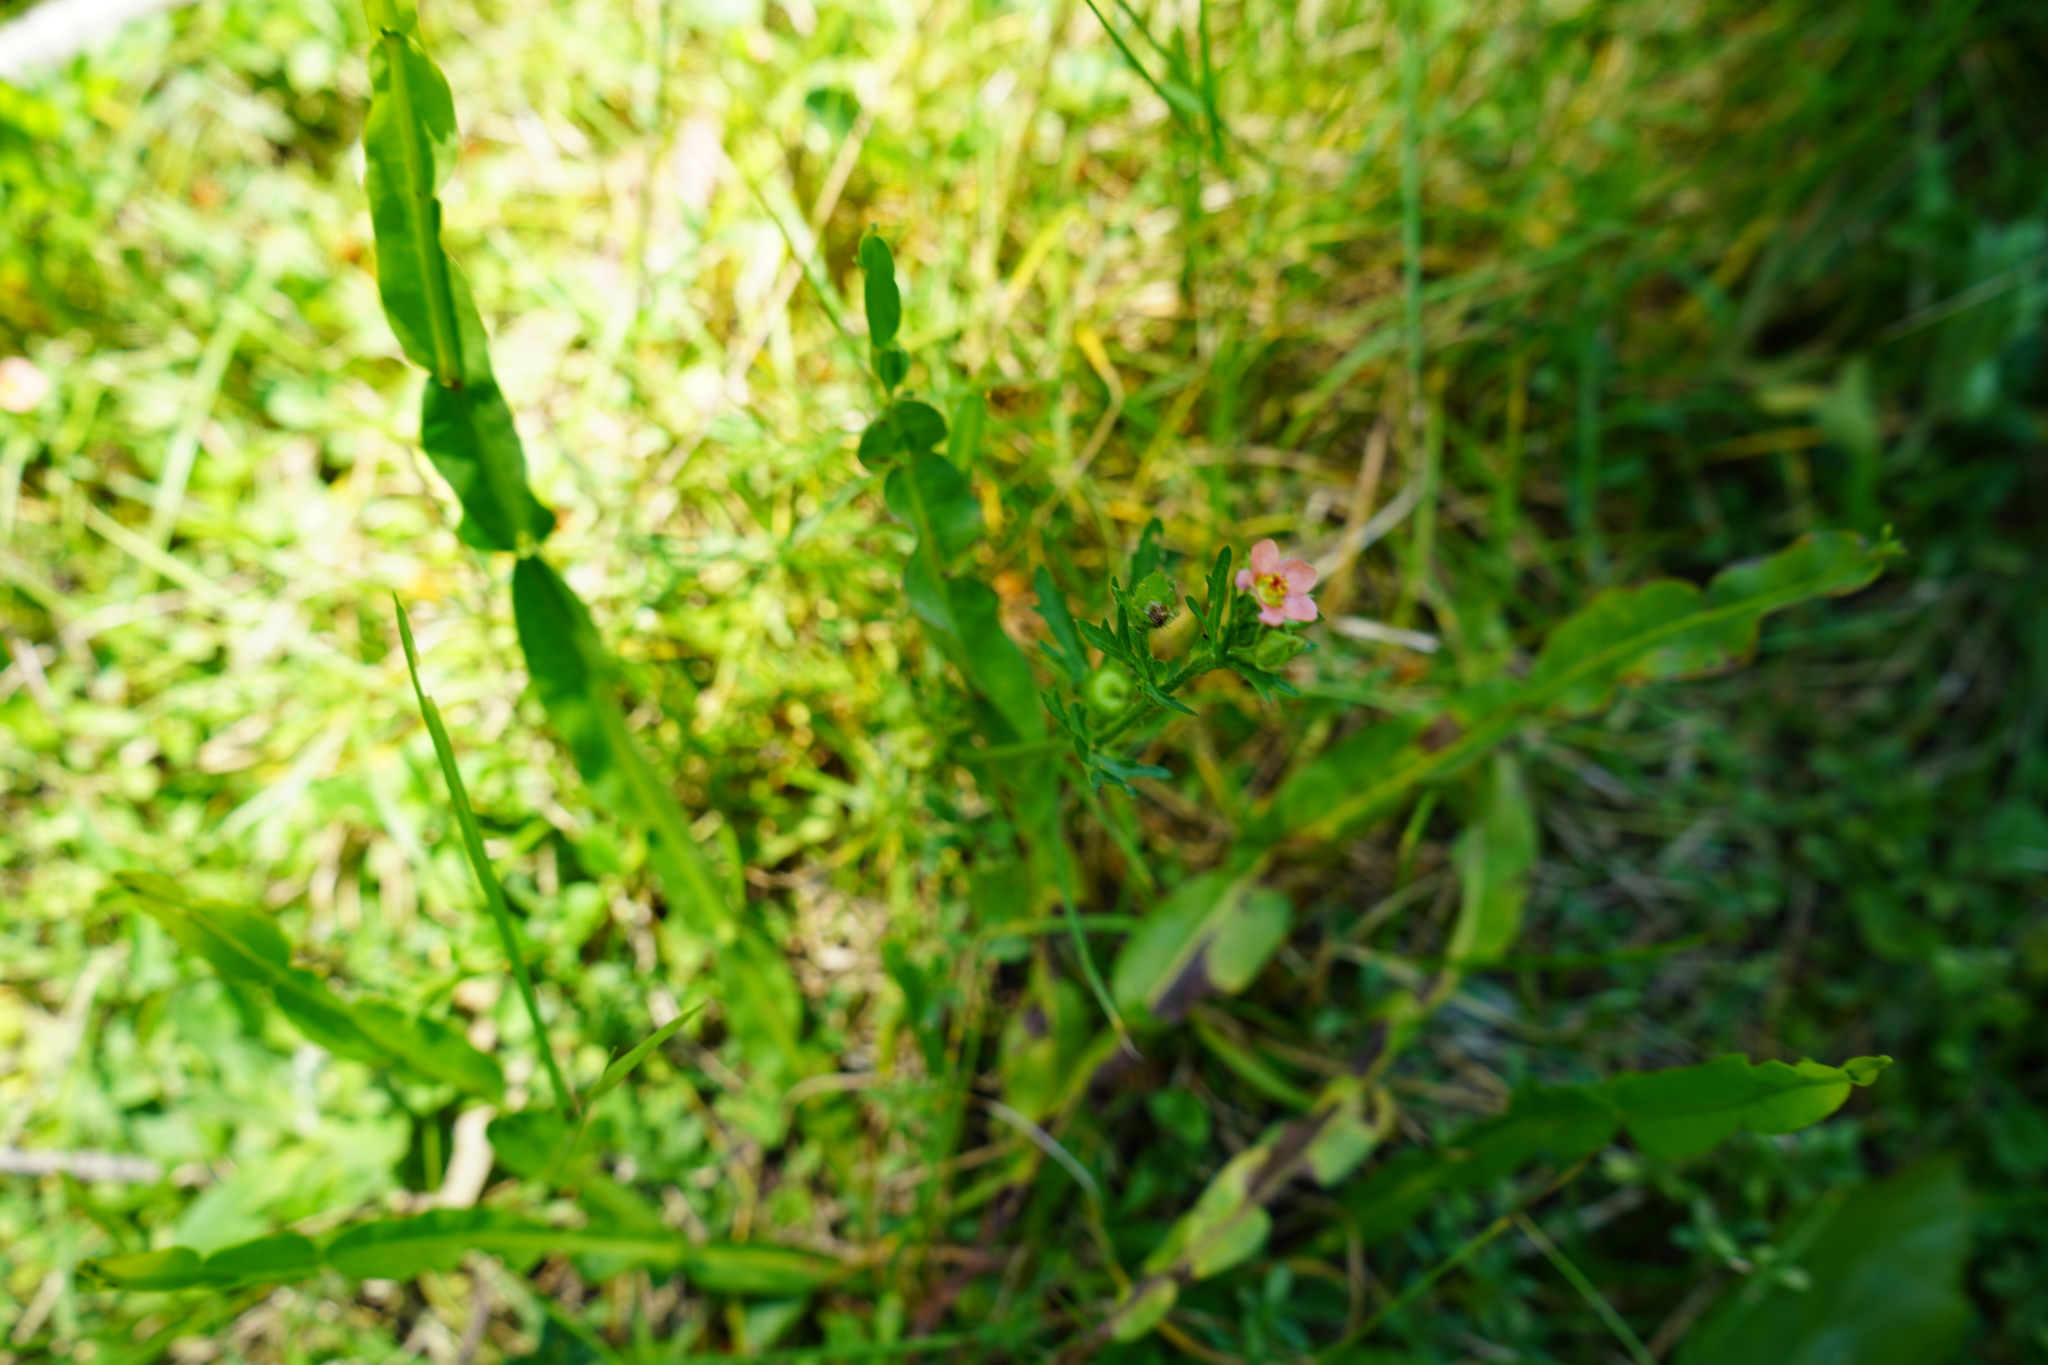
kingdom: Plantae
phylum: Tracheophyta
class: Magnoliopsida
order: Asterales
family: Asteraceae
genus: Baccharis
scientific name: Baccharis trimera
